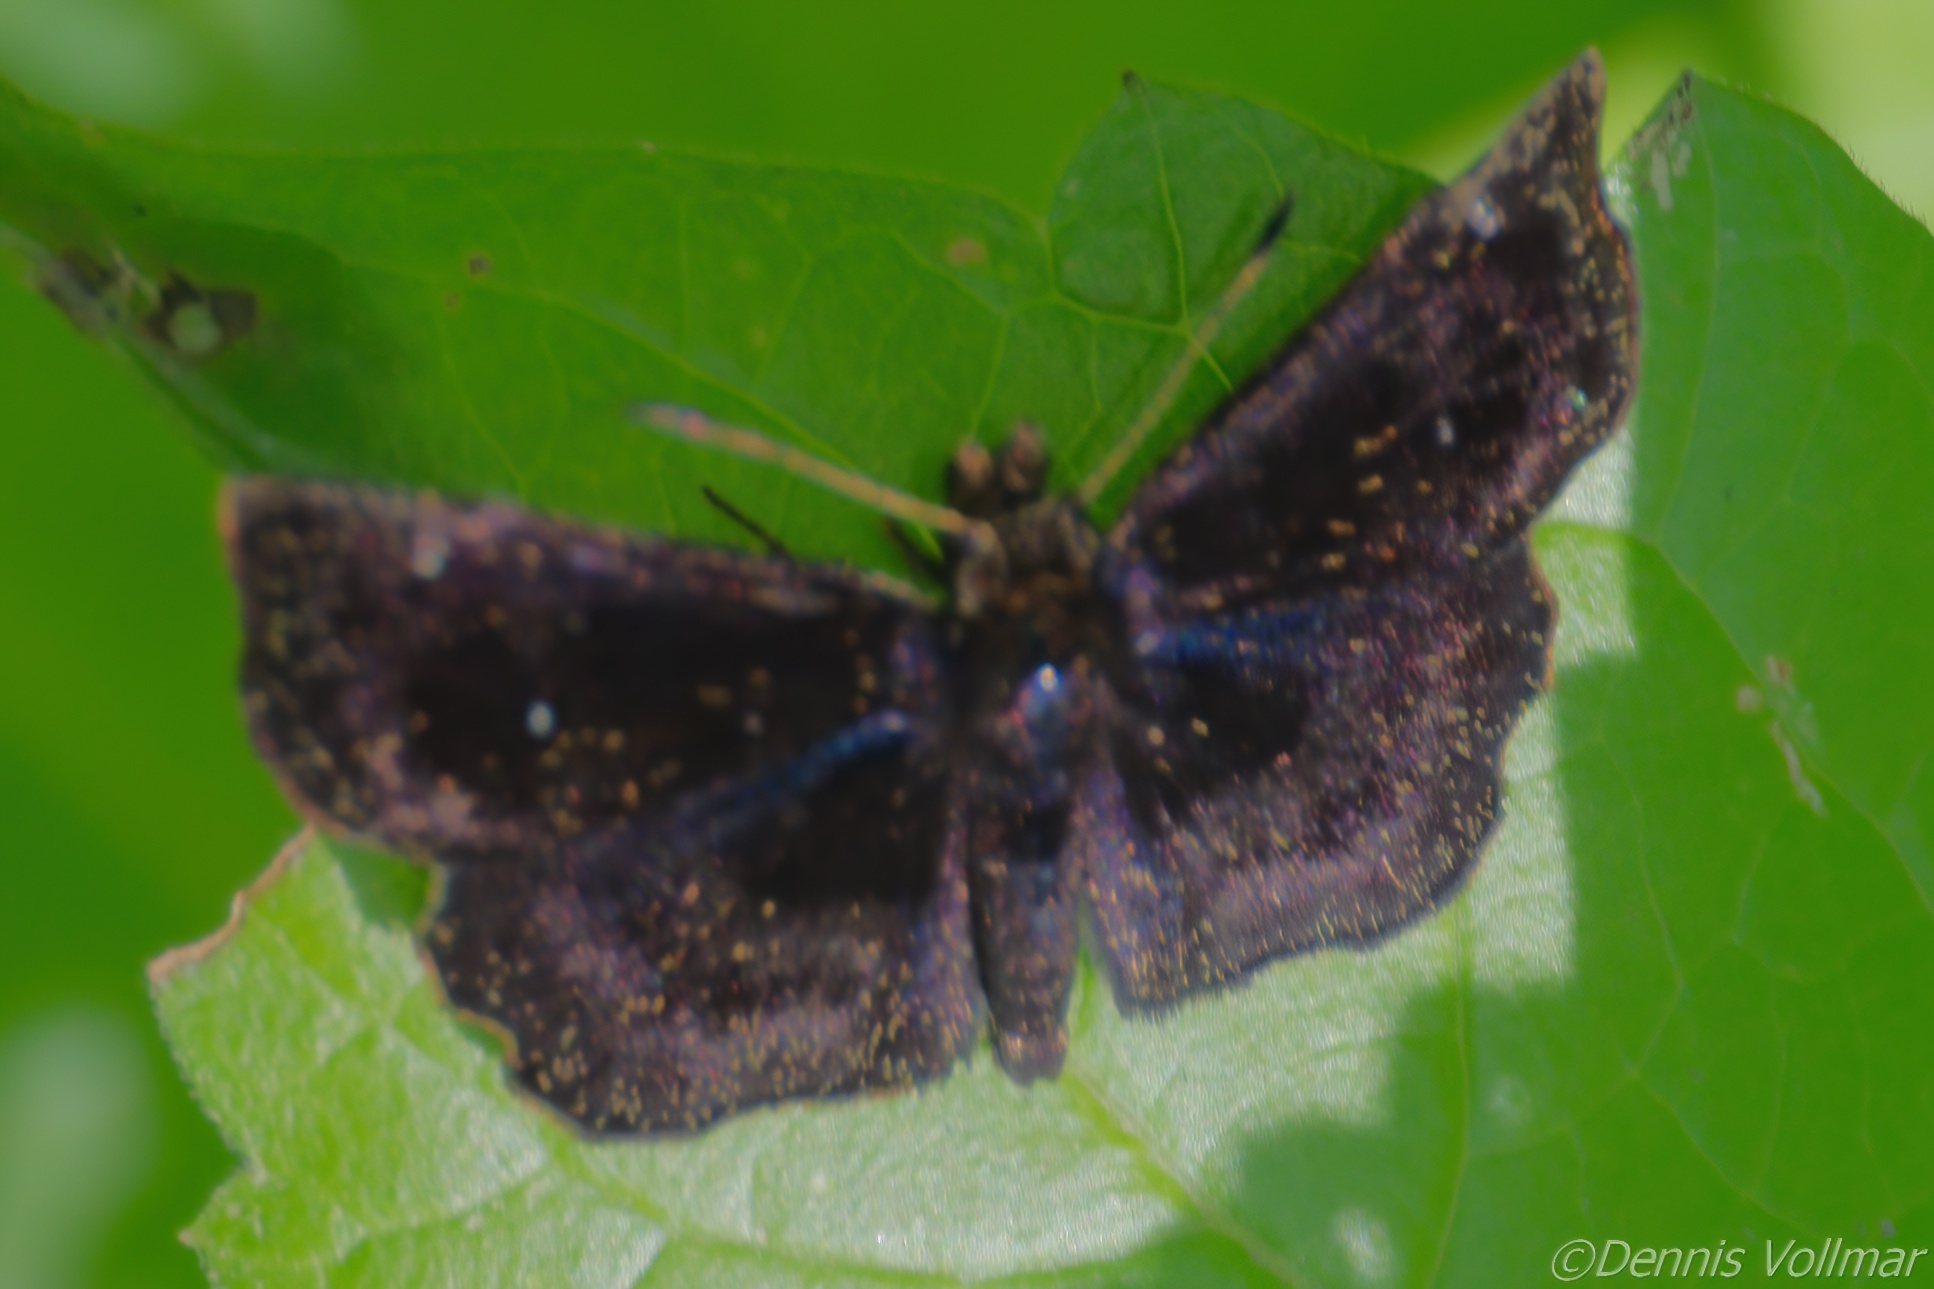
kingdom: Animalia
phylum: Arthropoda
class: Insecta
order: Lepidoptera
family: Hesperiidae
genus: Staphylus
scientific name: Staphylus mazans
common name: Mazans scallopwing
